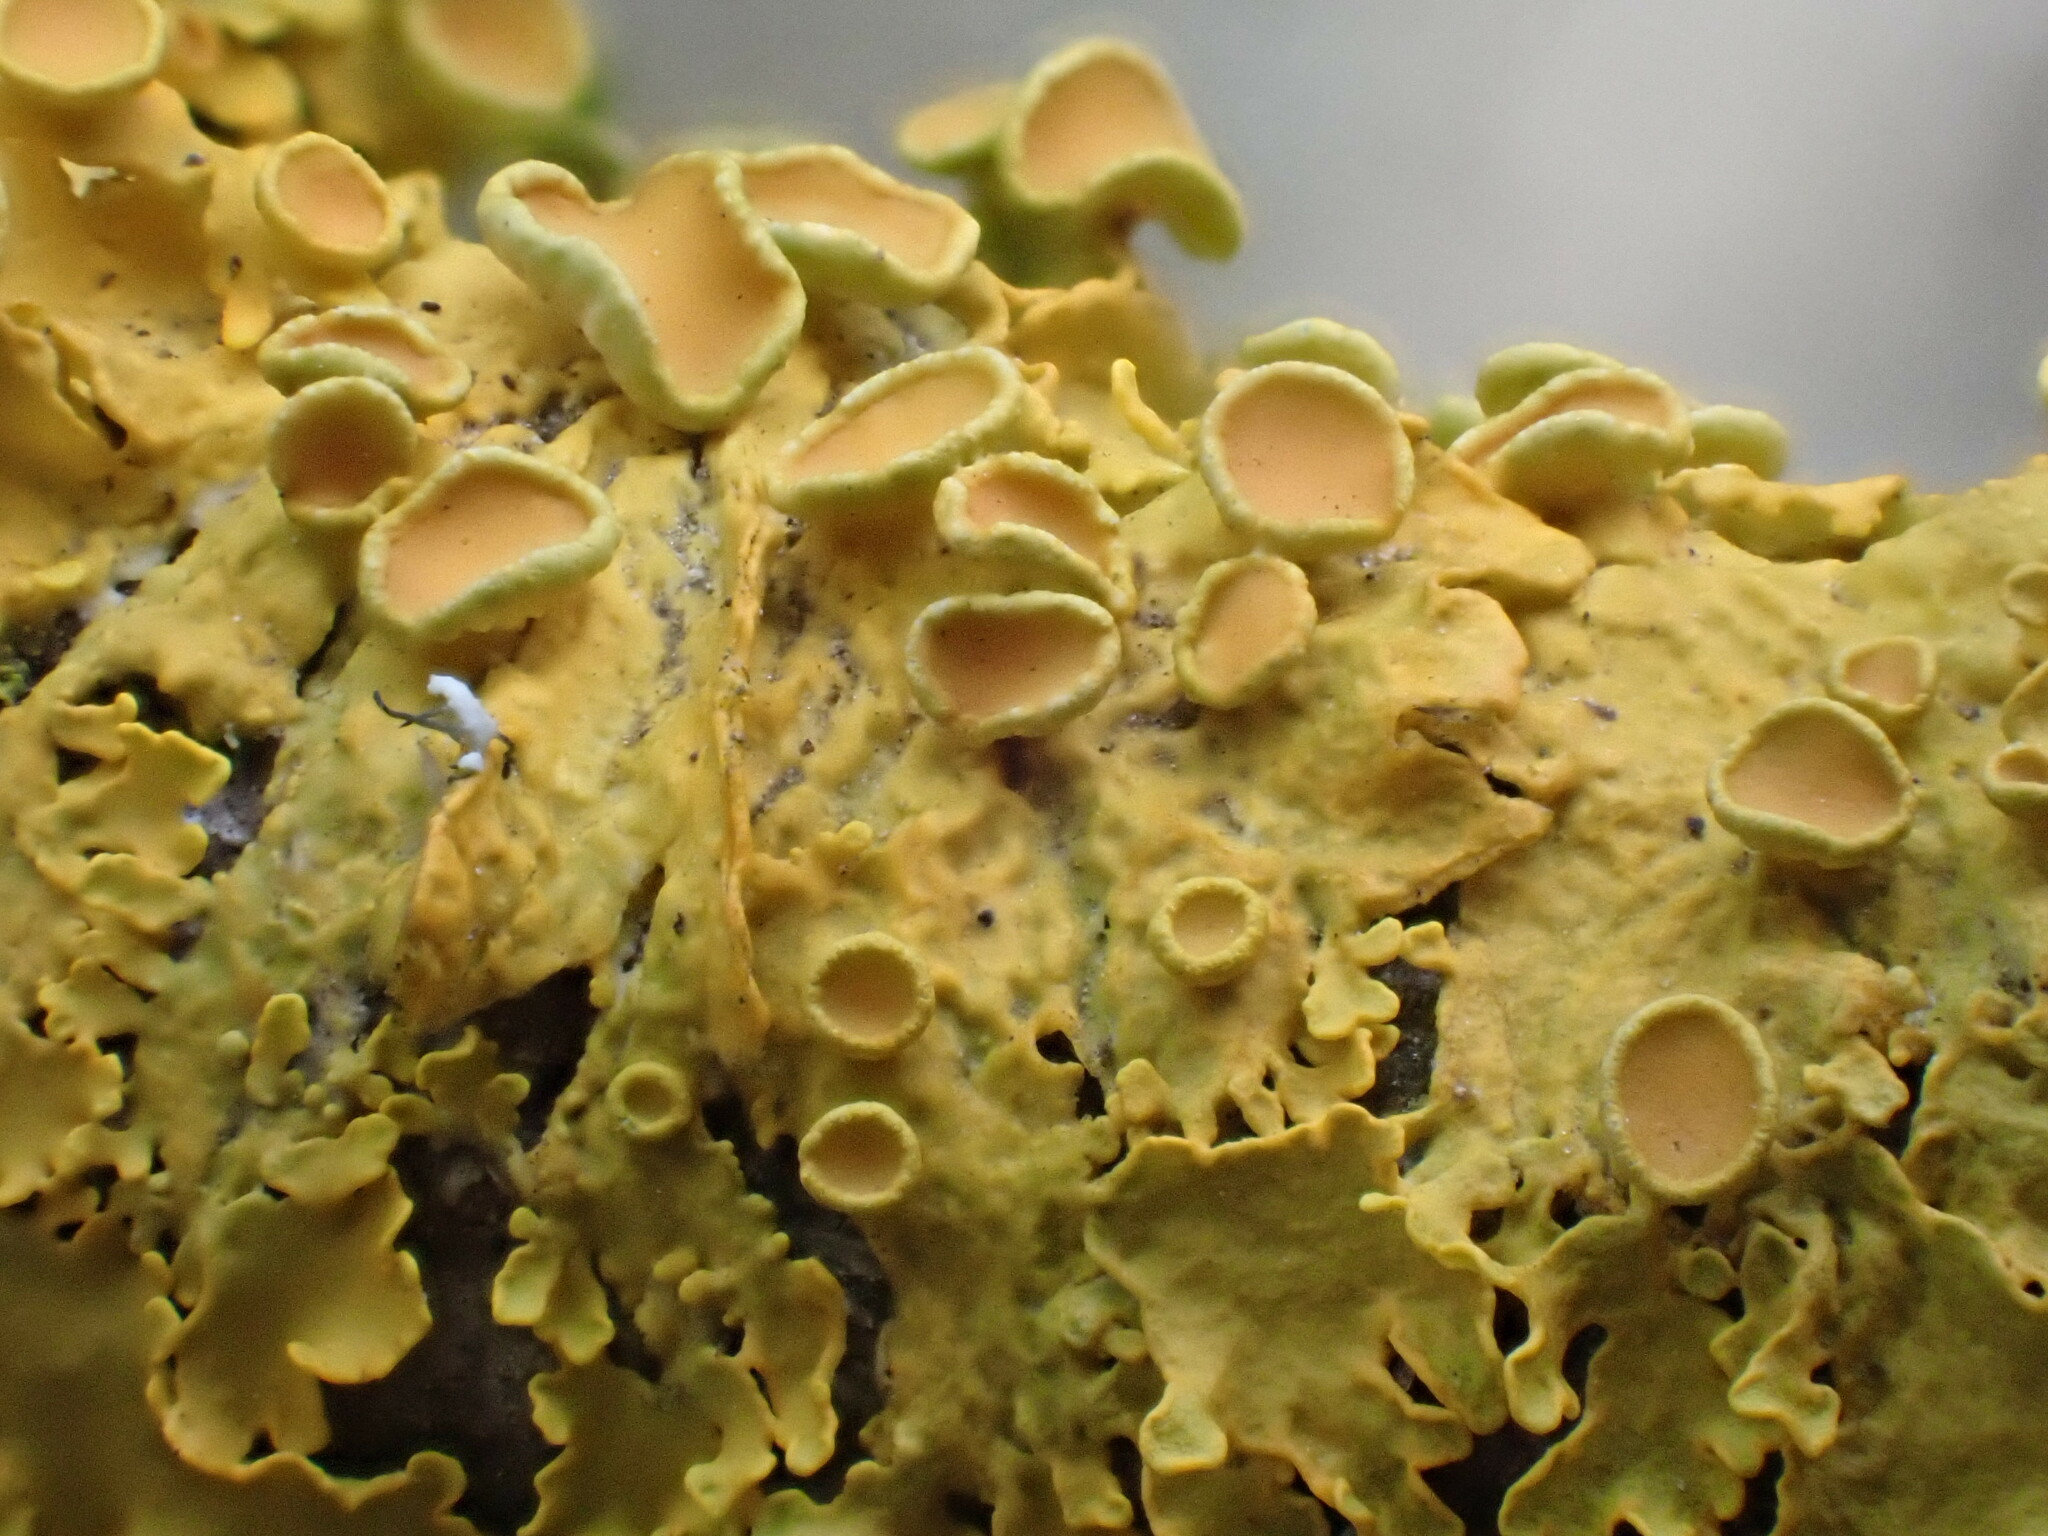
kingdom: Fungi
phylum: Ascomycota
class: Lecanoromycetes
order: Teloschistales
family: Teloschistaceae
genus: Xanthoria
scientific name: Xanthoria parietina
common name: Common orange lichen
